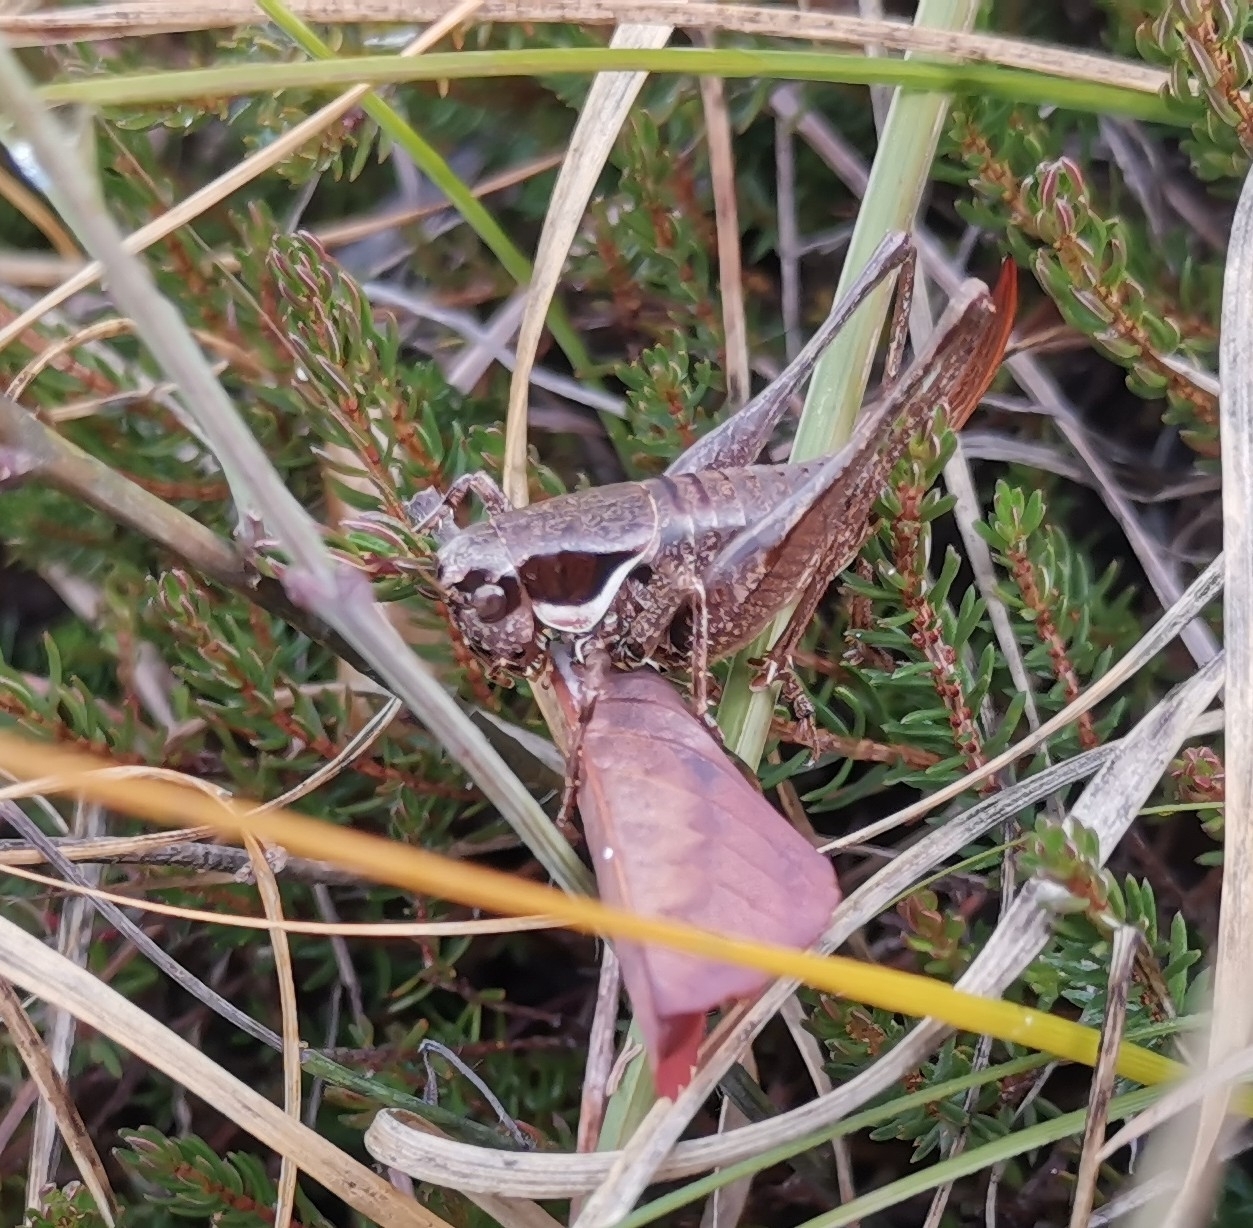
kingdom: Animalia
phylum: Arthropoda
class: Insecta
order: Orthoptera
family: Tettigoniidae
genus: Pholidoptera
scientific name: Pholidoptera fallax
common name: Fischer's bush-cricket
